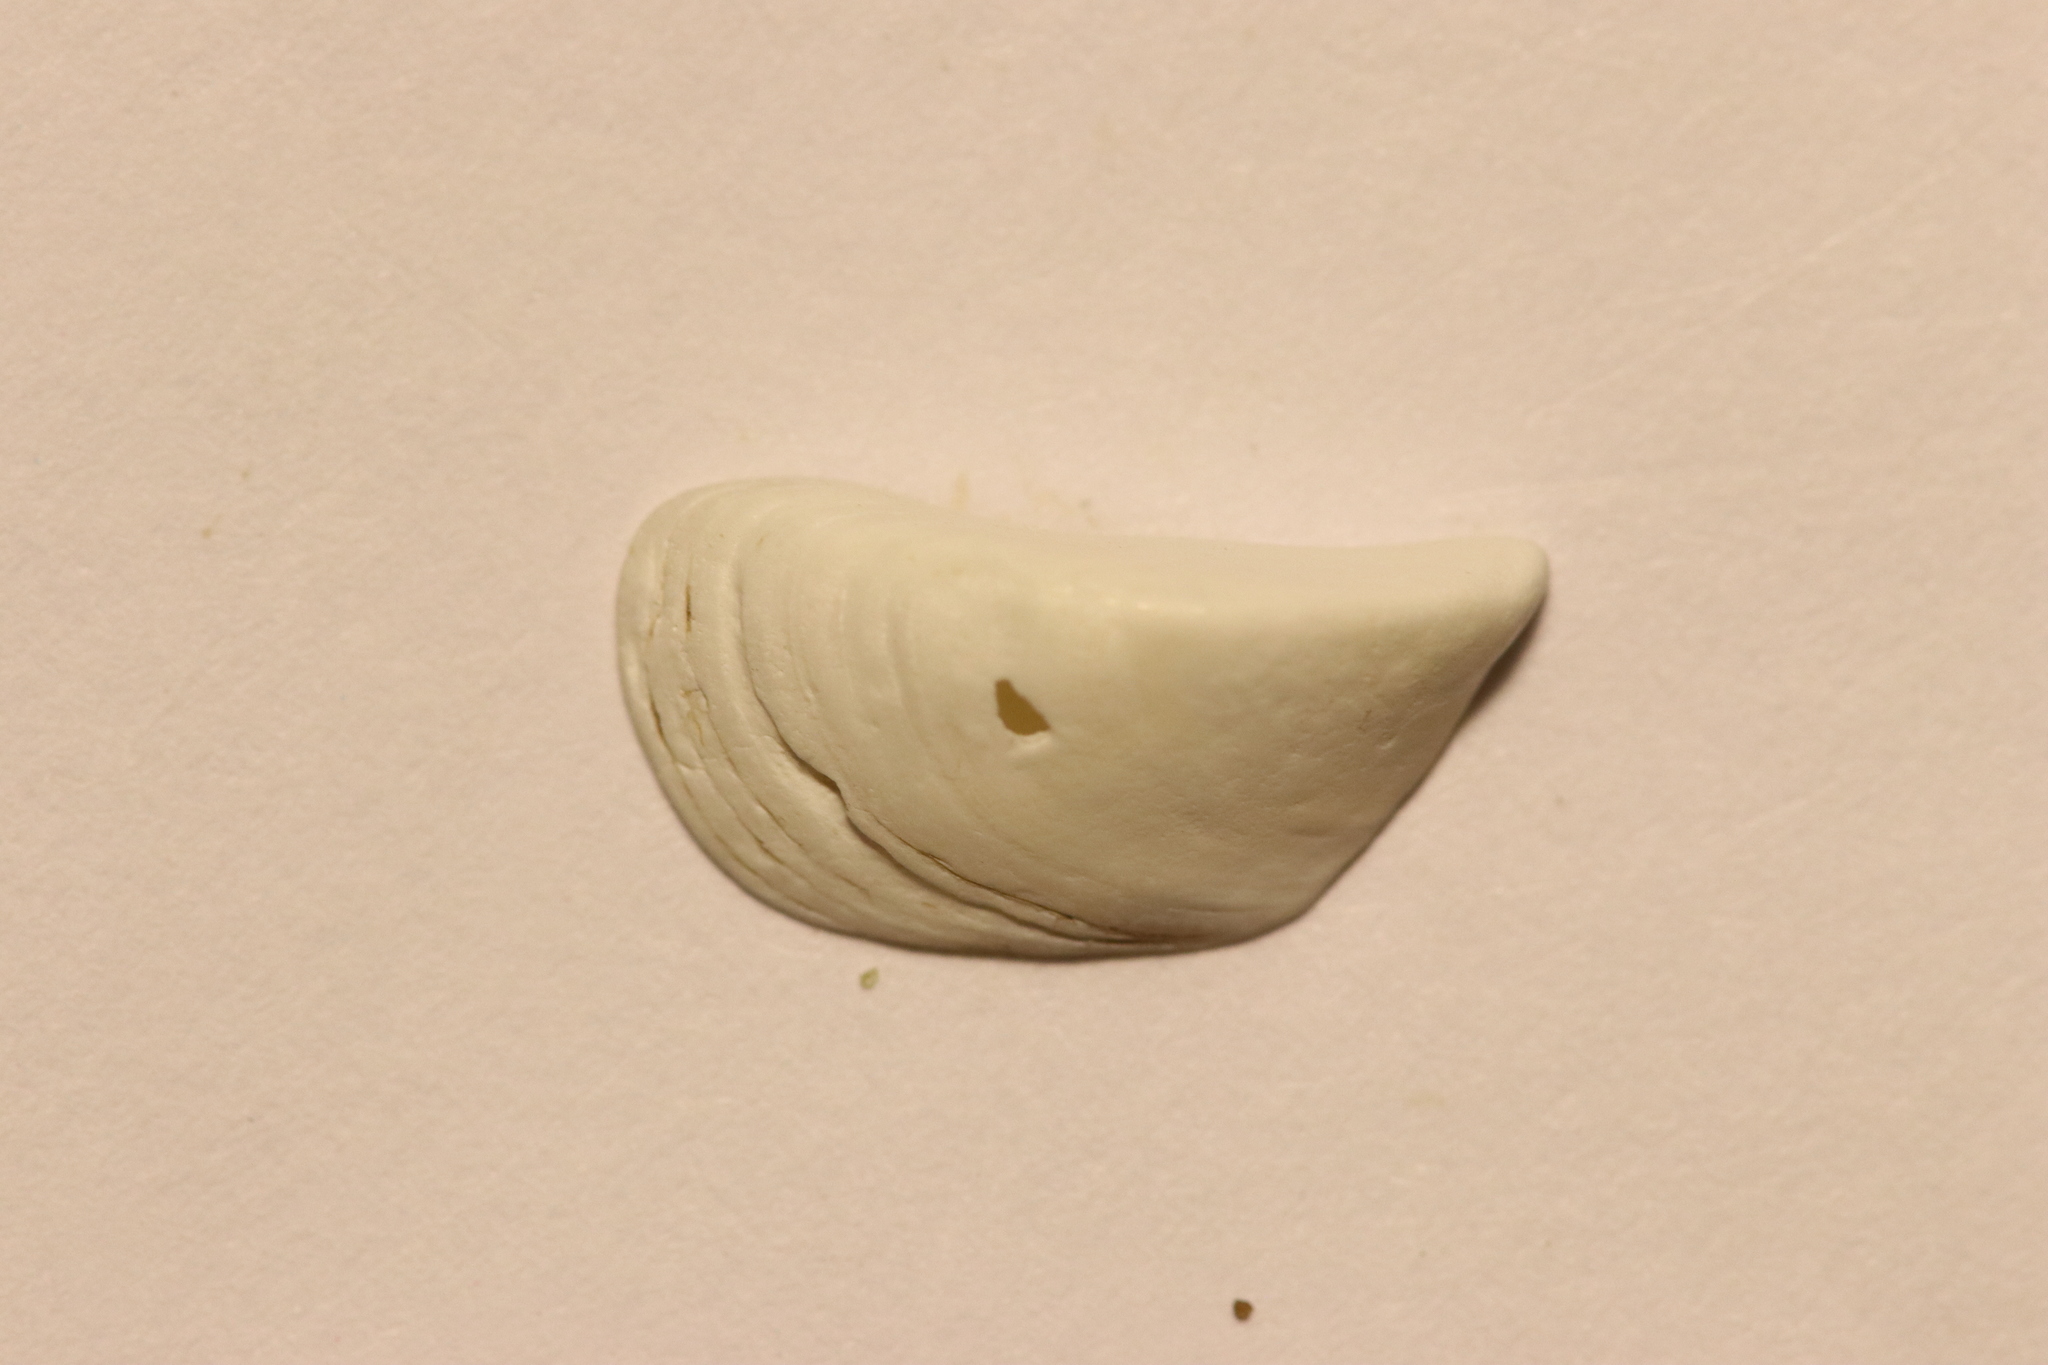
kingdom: Animalia
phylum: Mollusca
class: Bivalvia
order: Myida
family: Dreissenidae
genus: Dreissena
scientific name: Dreissena polymorpha
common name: Zebra mussel
